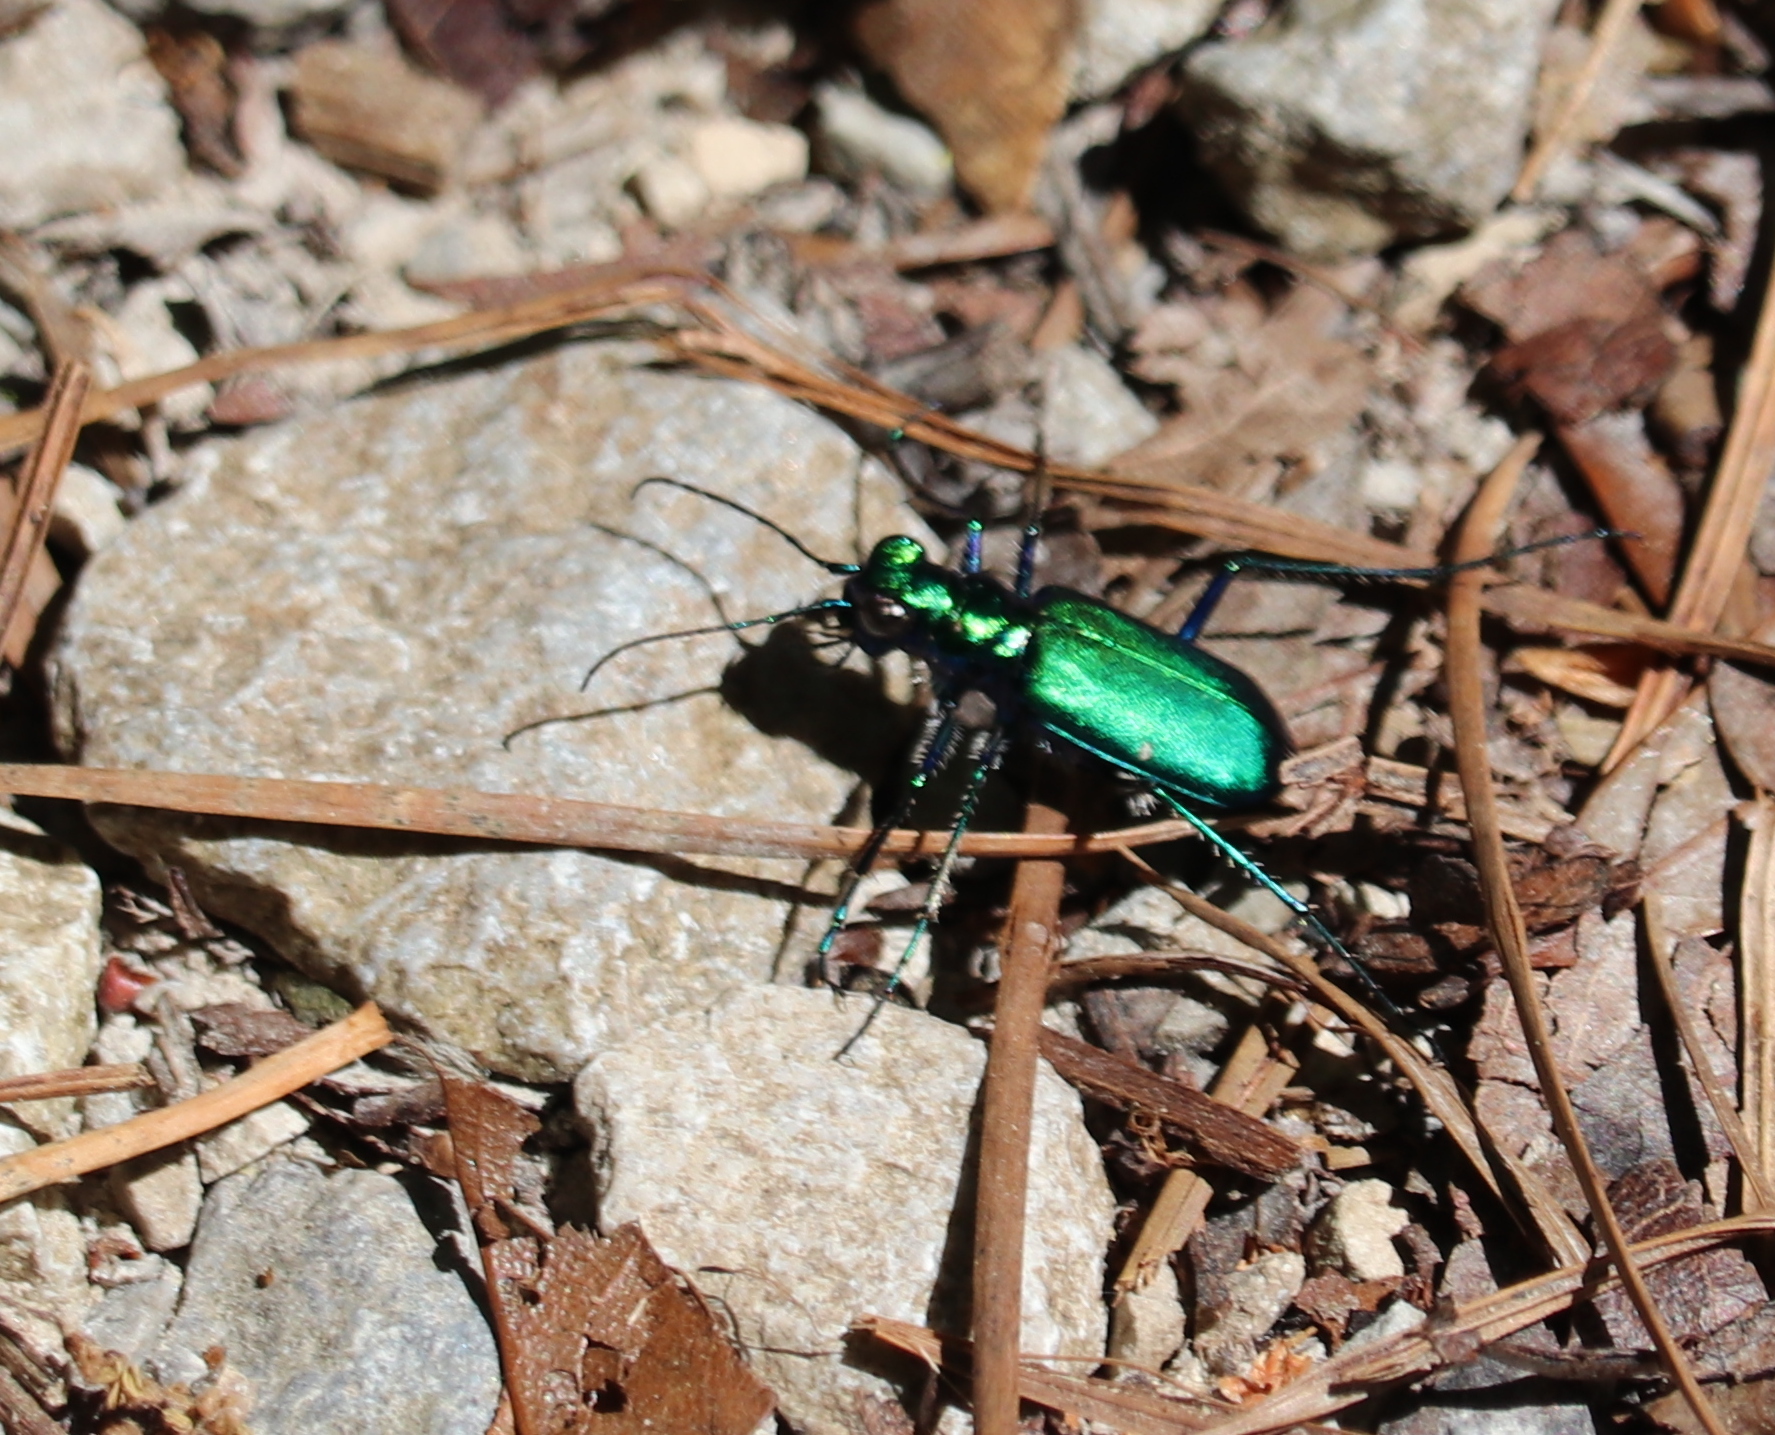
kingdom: Animalia
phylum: Arthropoda
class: Insecta
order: Coleoptera
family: Carabidae
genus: Cicindela
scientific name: Cicindela sexguttata
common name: Six-spotted tiger beetle
